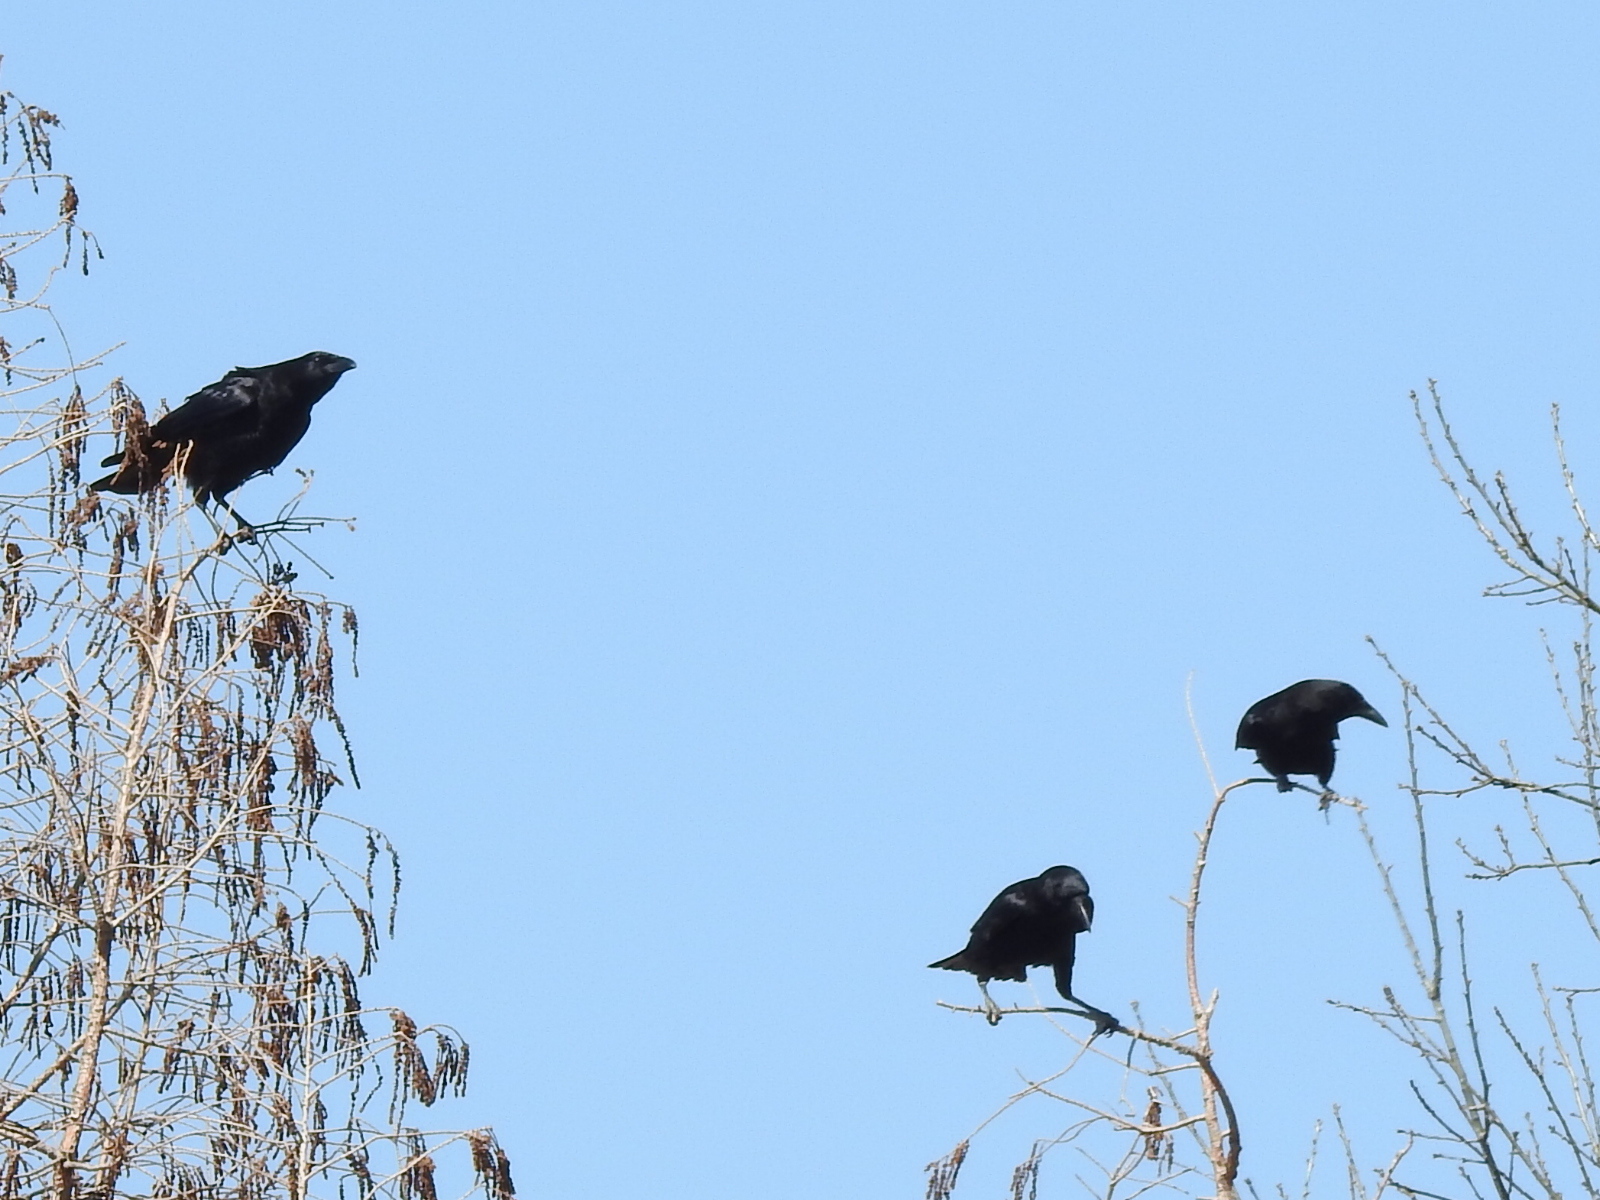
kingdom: Animalia
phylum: Chordata
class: Aves
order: Passeriformes
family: Corvidae
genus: Corvus
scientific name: Corvus brachyrhynchos
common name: American crow
